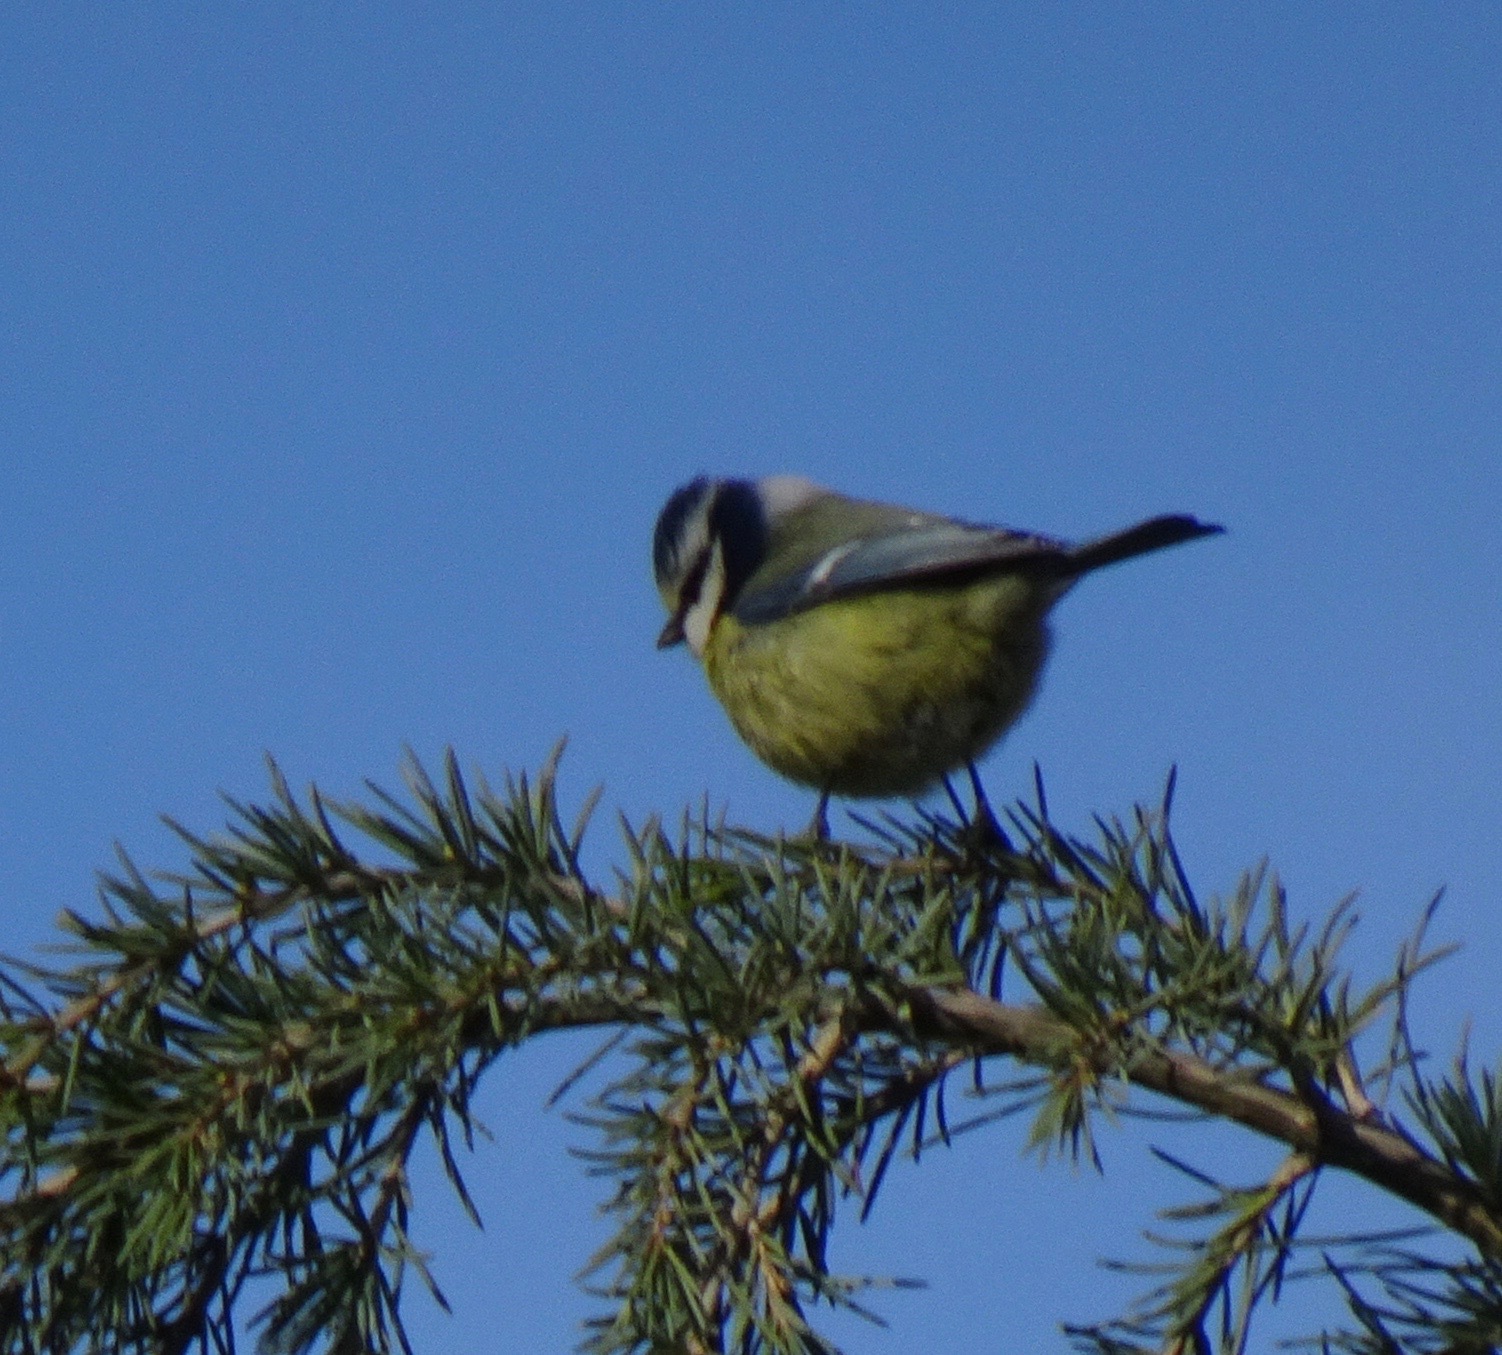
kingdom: Animalia
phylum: Chordata
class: Aves
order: Passeriformes
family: Paridae
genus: Cyanistes
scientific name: Cyanistes caeruleus
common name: Eurasian blue tit
